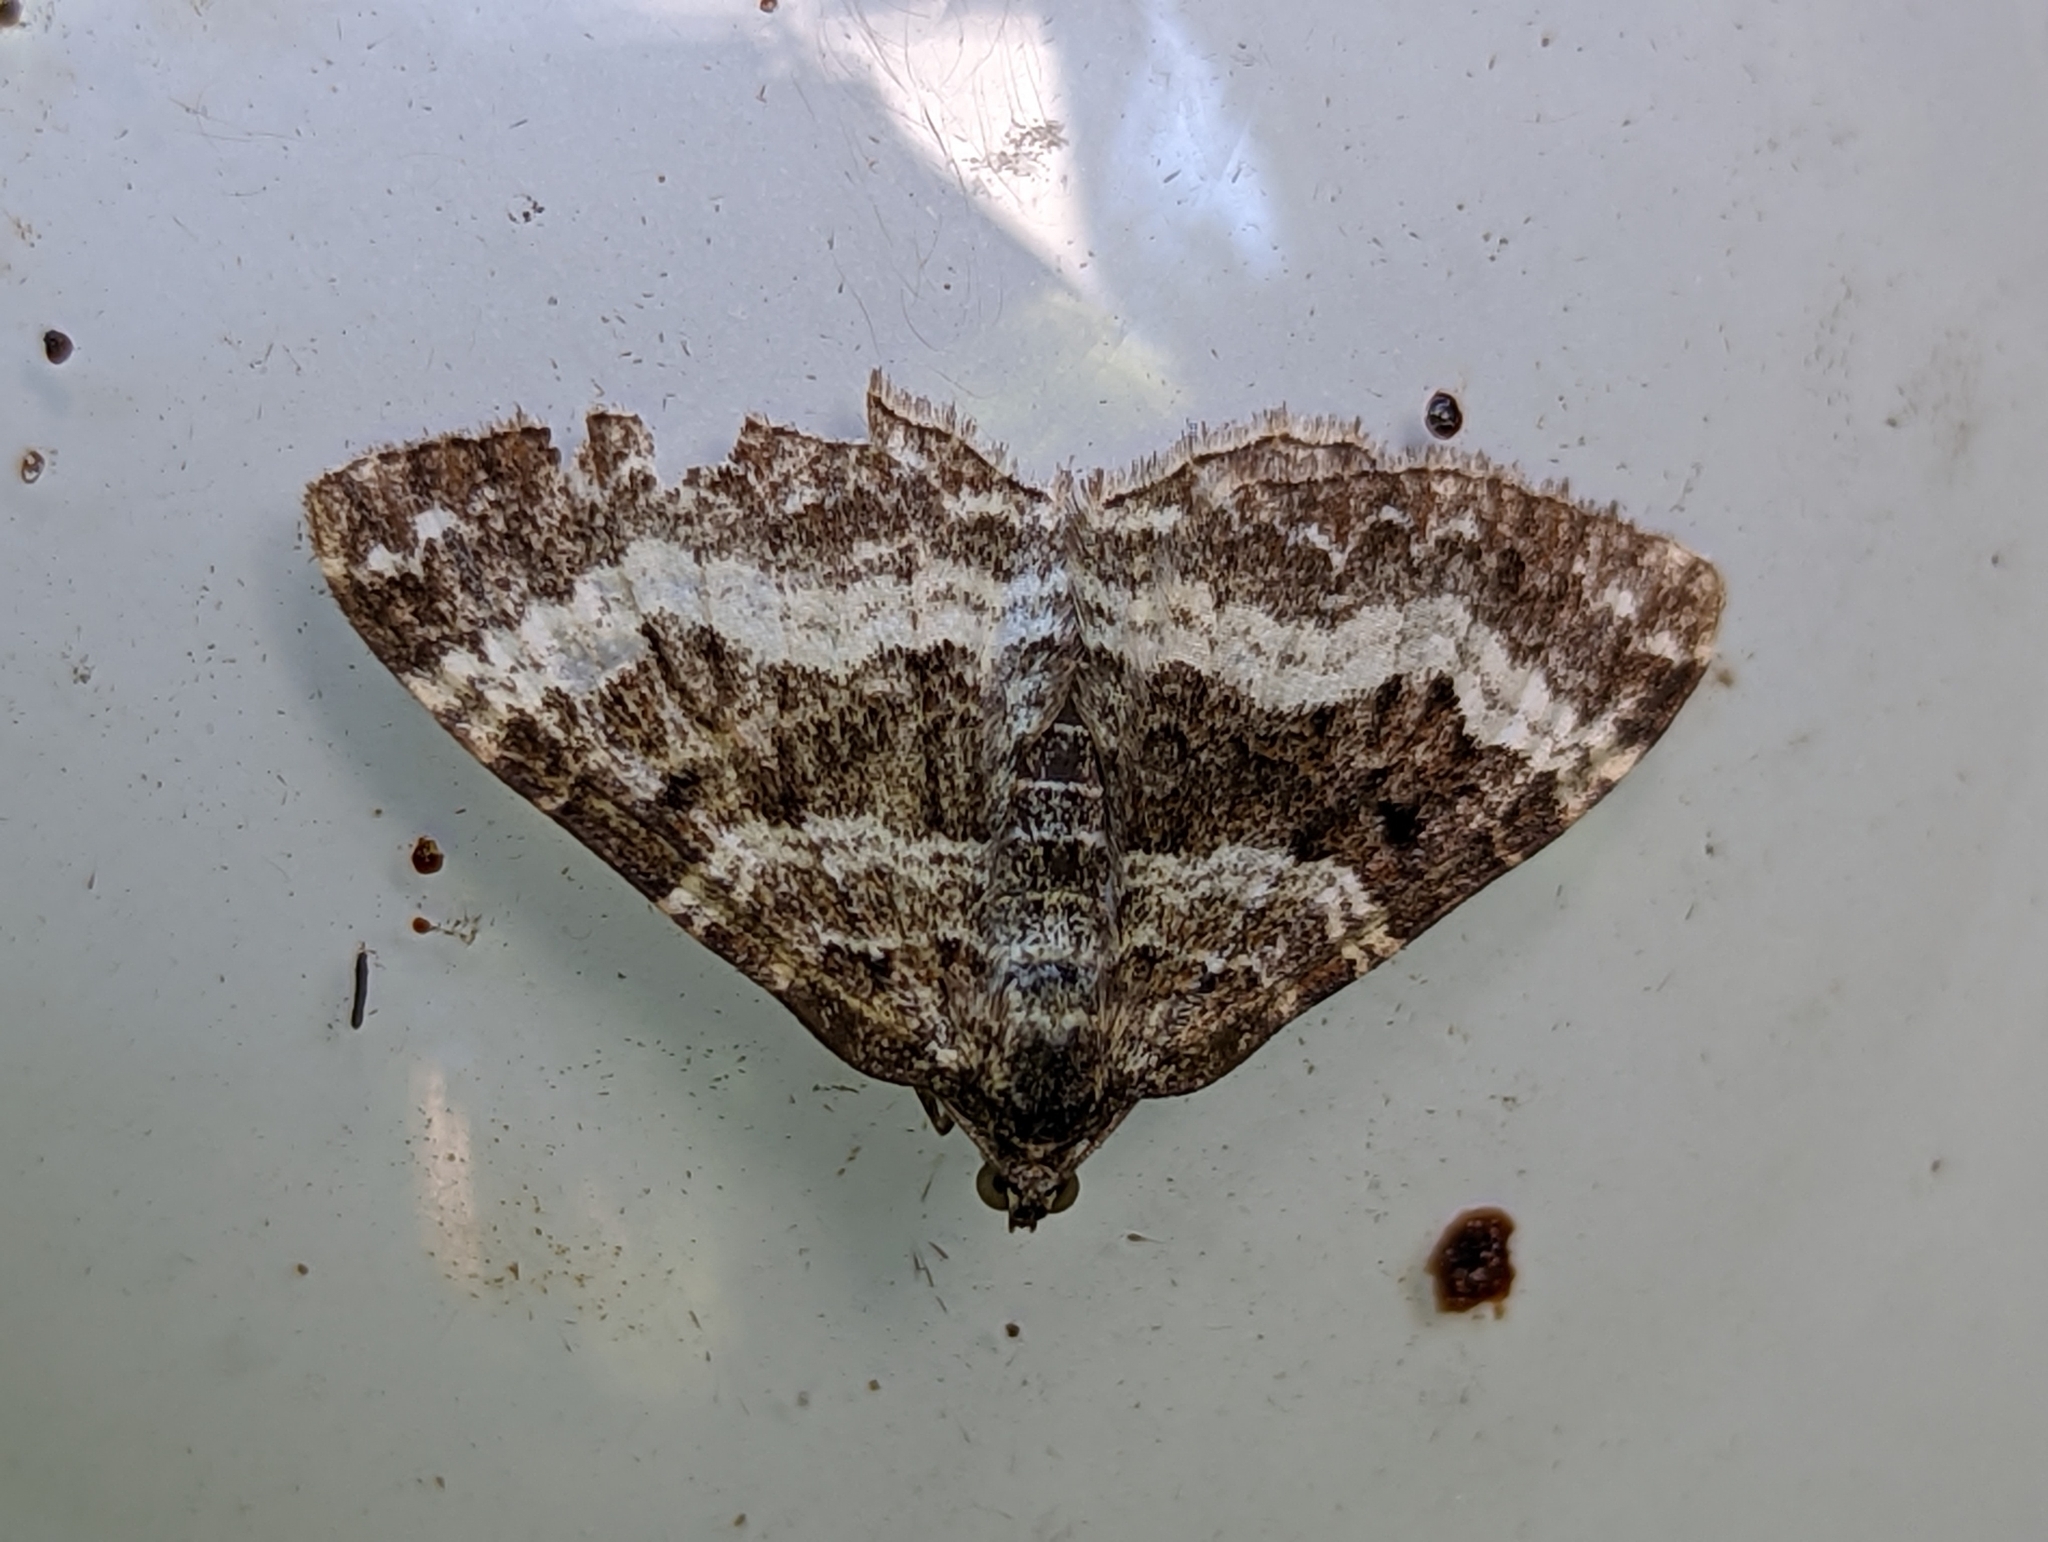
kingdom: Animalia
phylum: Arthropoda
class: Insecta
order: Lepidoptera
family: Geometridae
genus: Epirrhoe
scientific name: Epirrhoe alternata
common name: Common carpet
